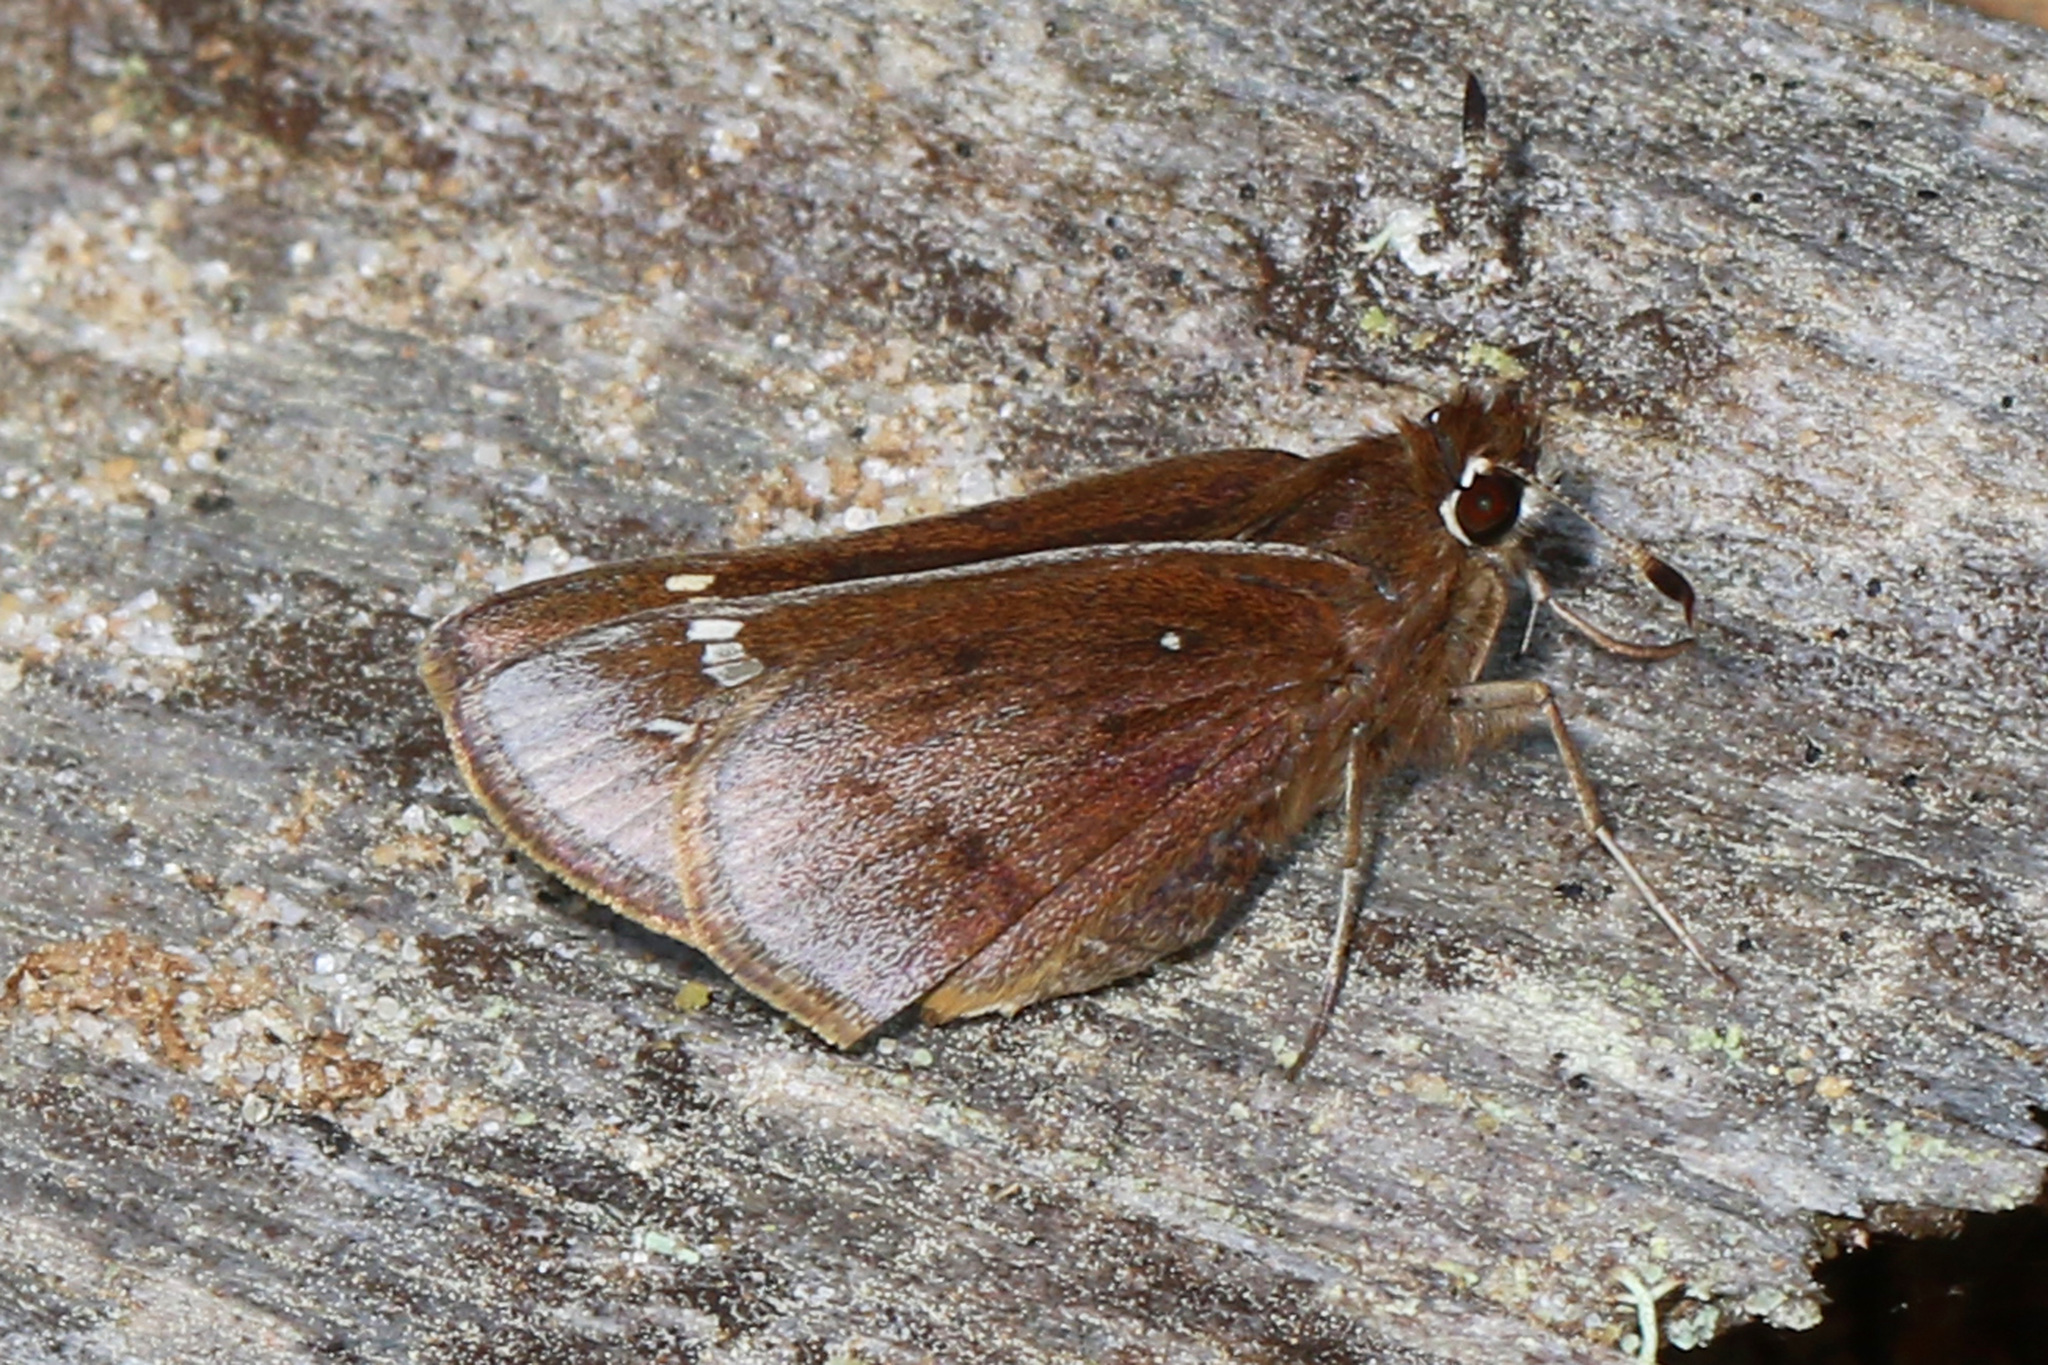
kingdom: Animalia
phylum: Arthropoda
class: Insecta
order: Lepidoptera
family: Hesperiidae
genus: Atrytonopsis
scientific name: Atrytonopsis hianna
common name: Dusted skipper
